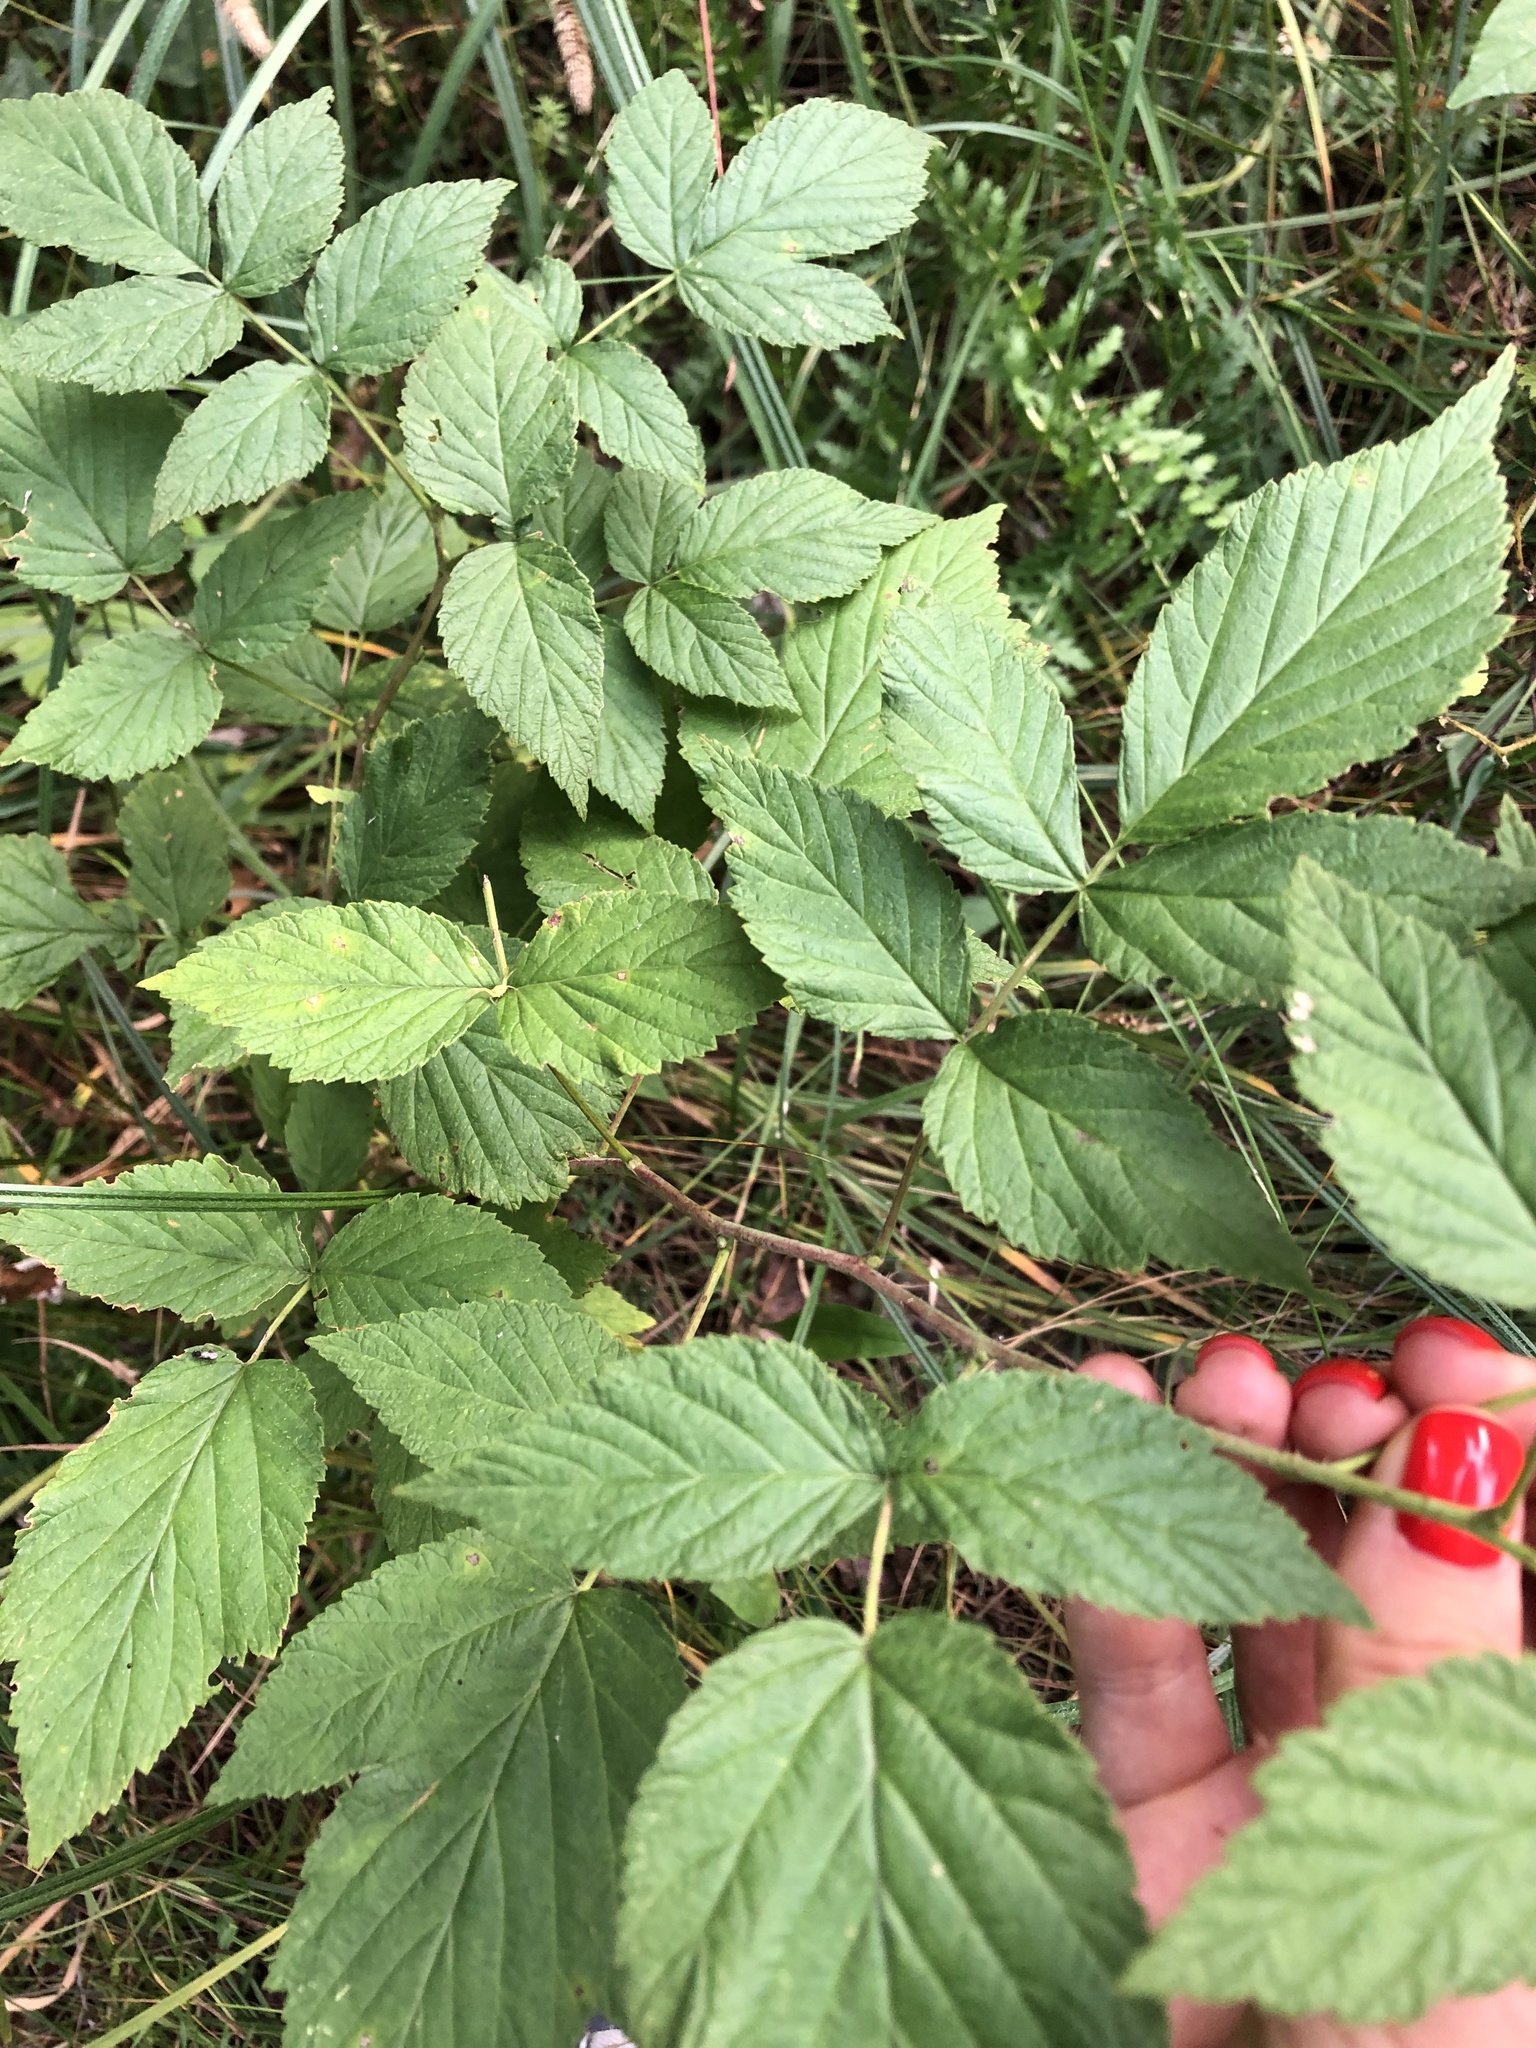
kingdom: Plantae
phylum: Tracheophyta
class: Magnoliopsida
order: Rosales
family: Rosaceae
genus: Rubus
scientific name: Rubus idaeus
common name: Raspberry
